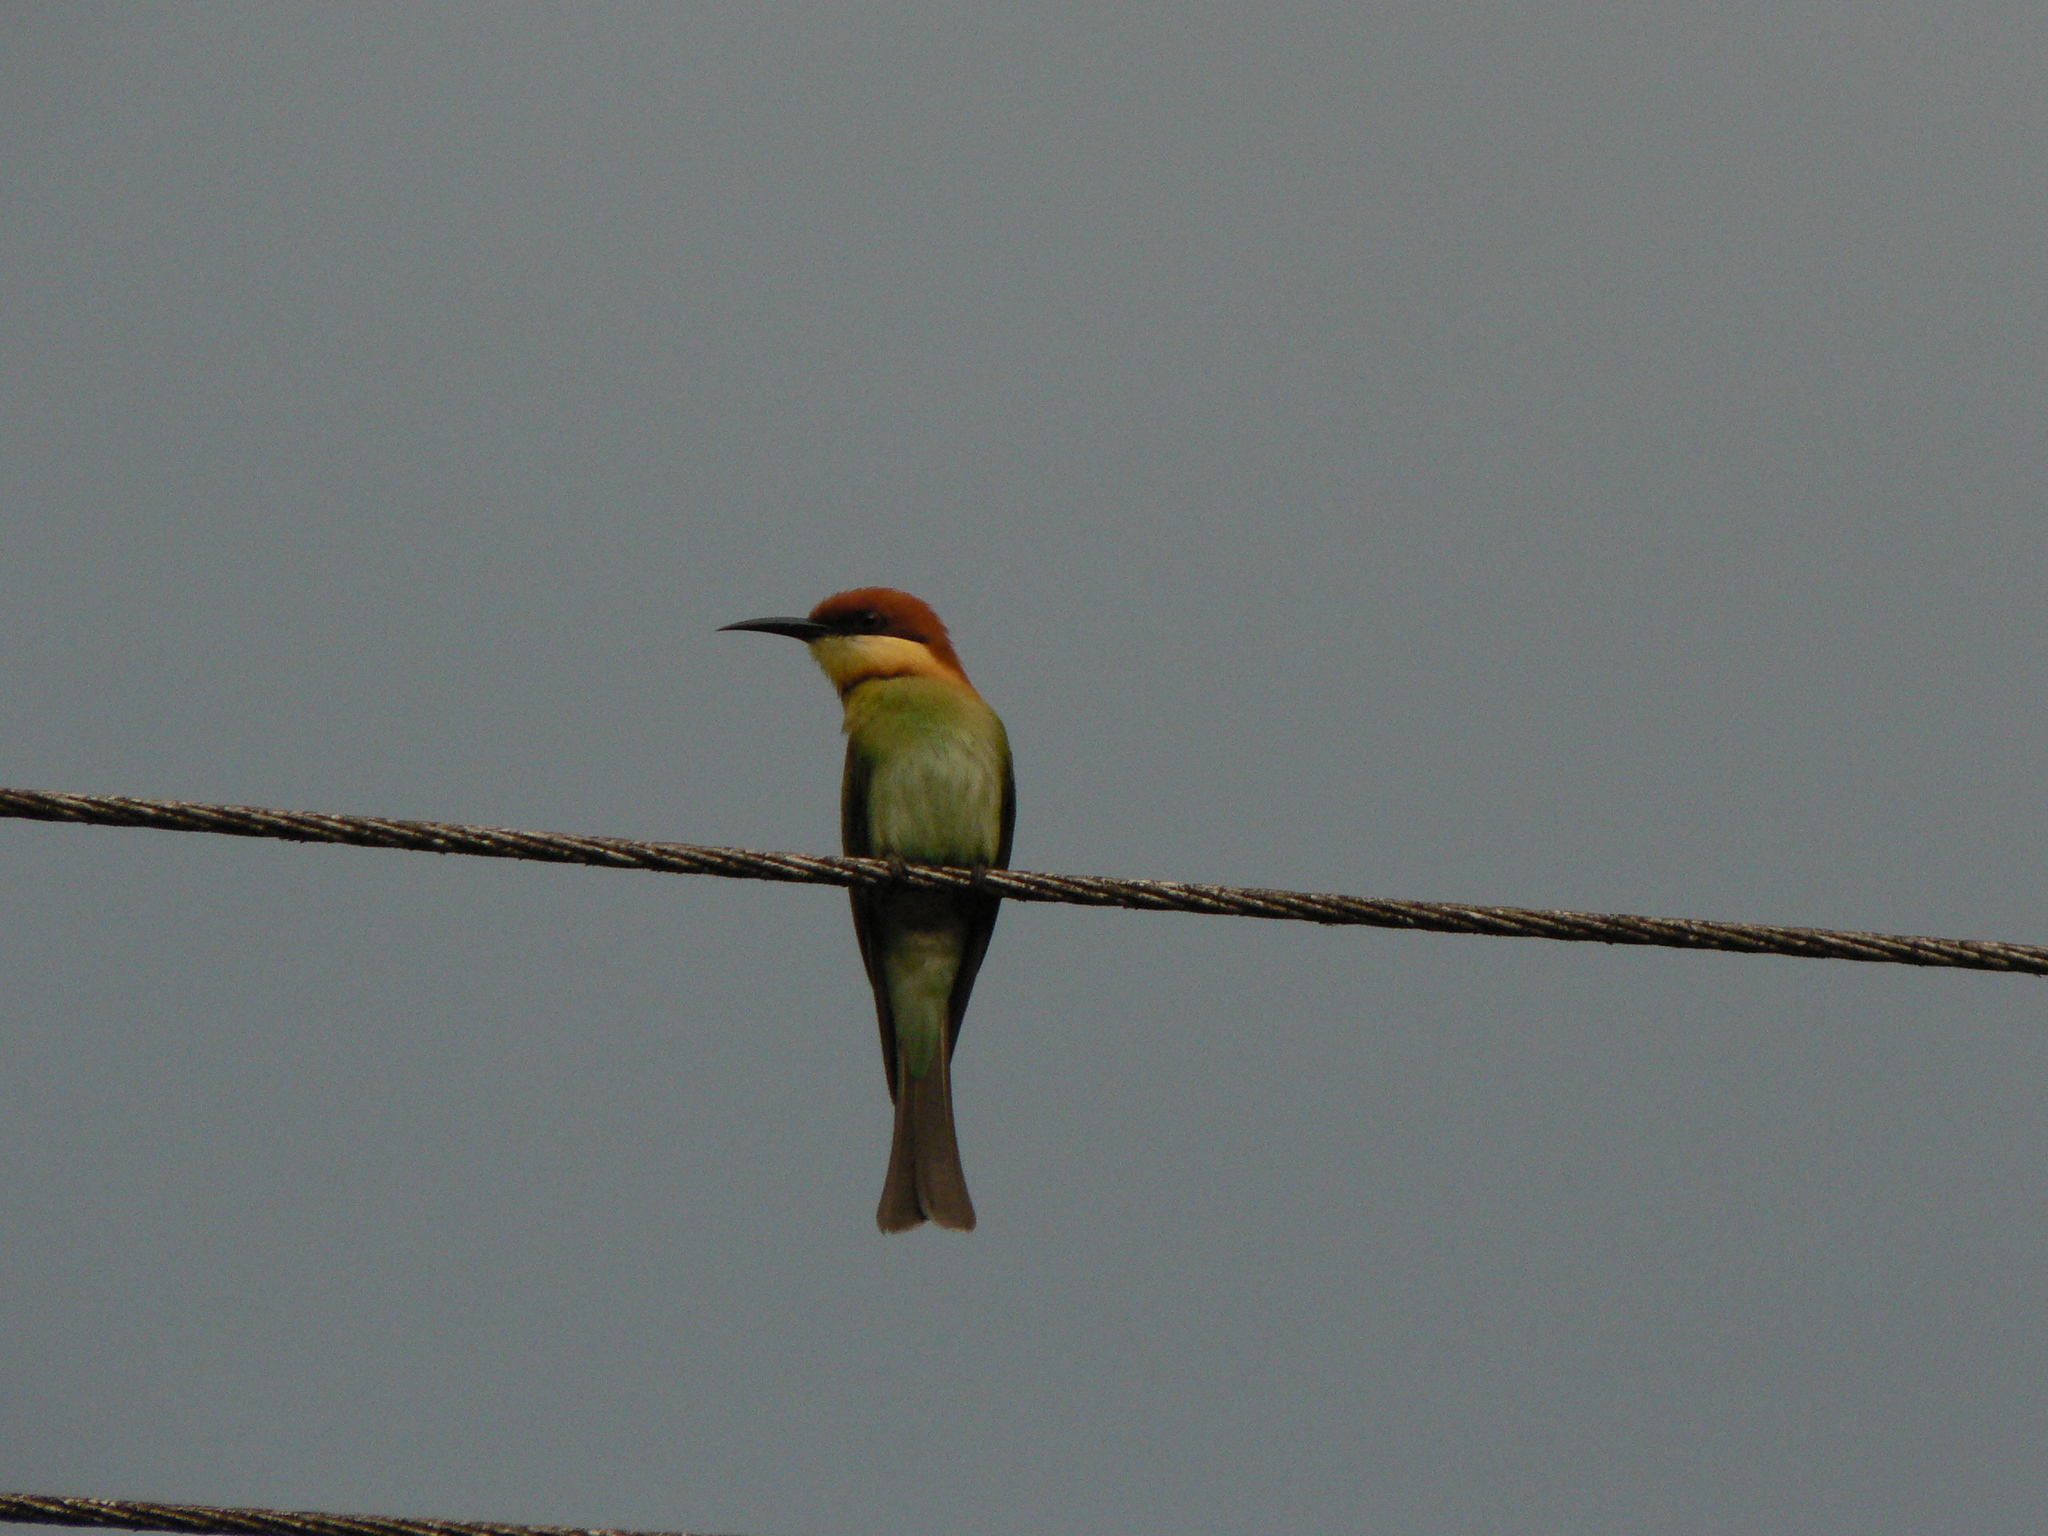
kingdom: Animalia
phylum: Chordata
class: Aves
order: Coraciiformes
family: Meropidae
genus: Merops
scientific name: Merops leschenaulti
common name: Chestnut-headed bee-eater
